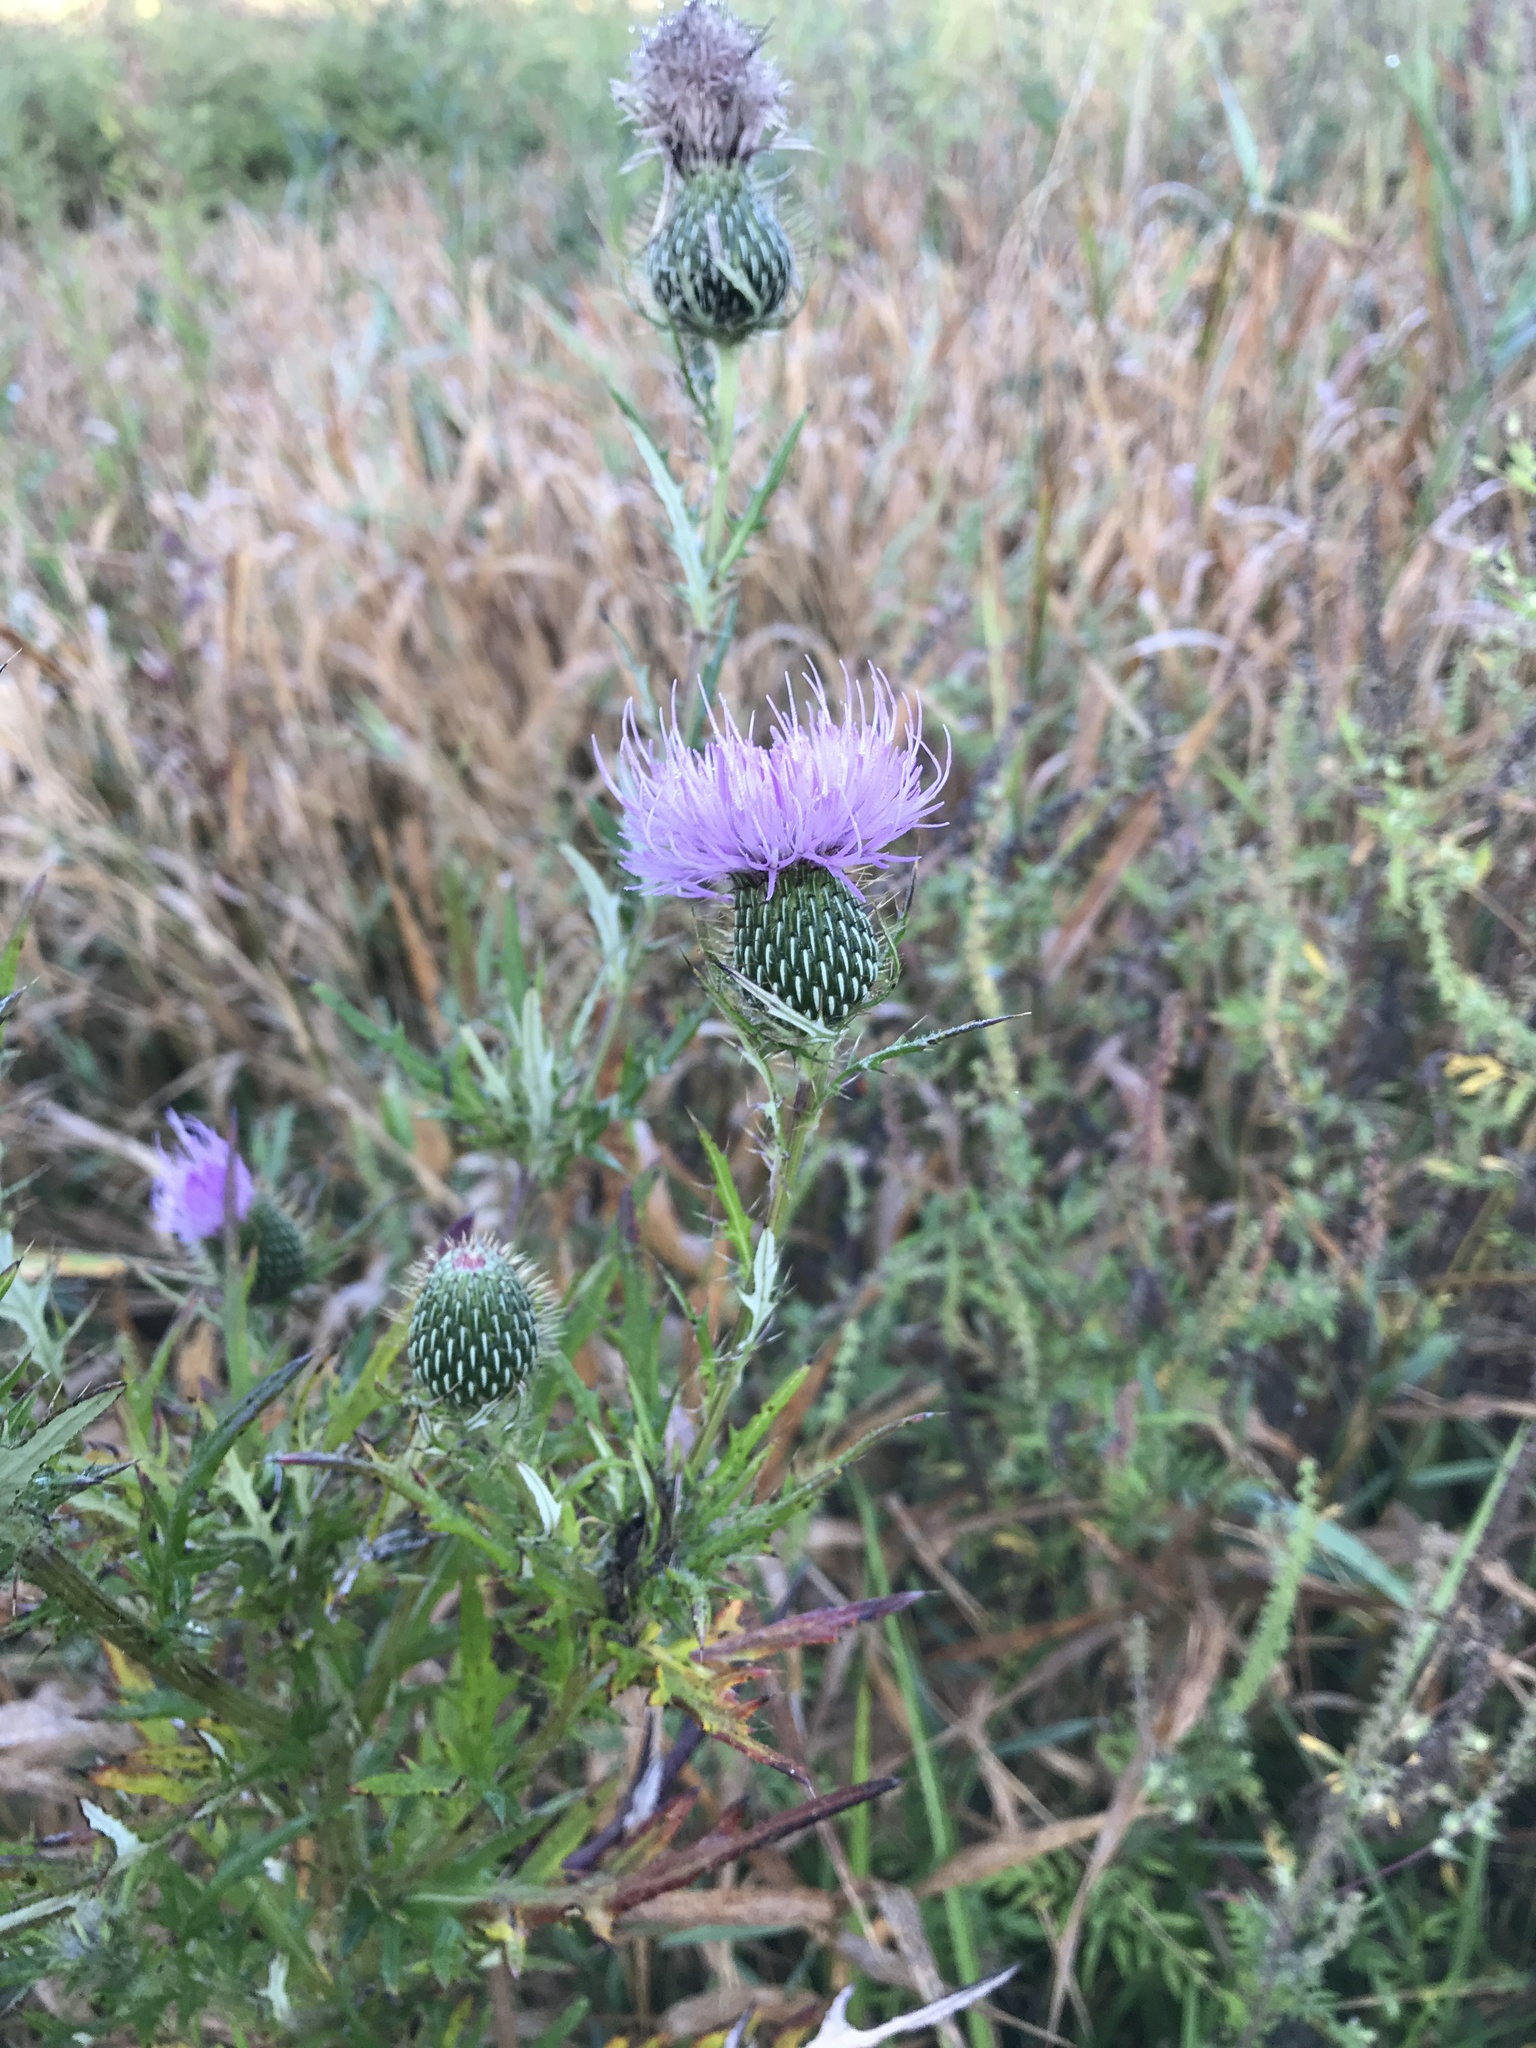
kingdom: Plantae
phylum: Tracheophyta
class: Magnoliopsida
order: Asterales
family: Asteraceae
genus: Cirsium
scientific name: Cirsium discolor
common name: Field thistle
